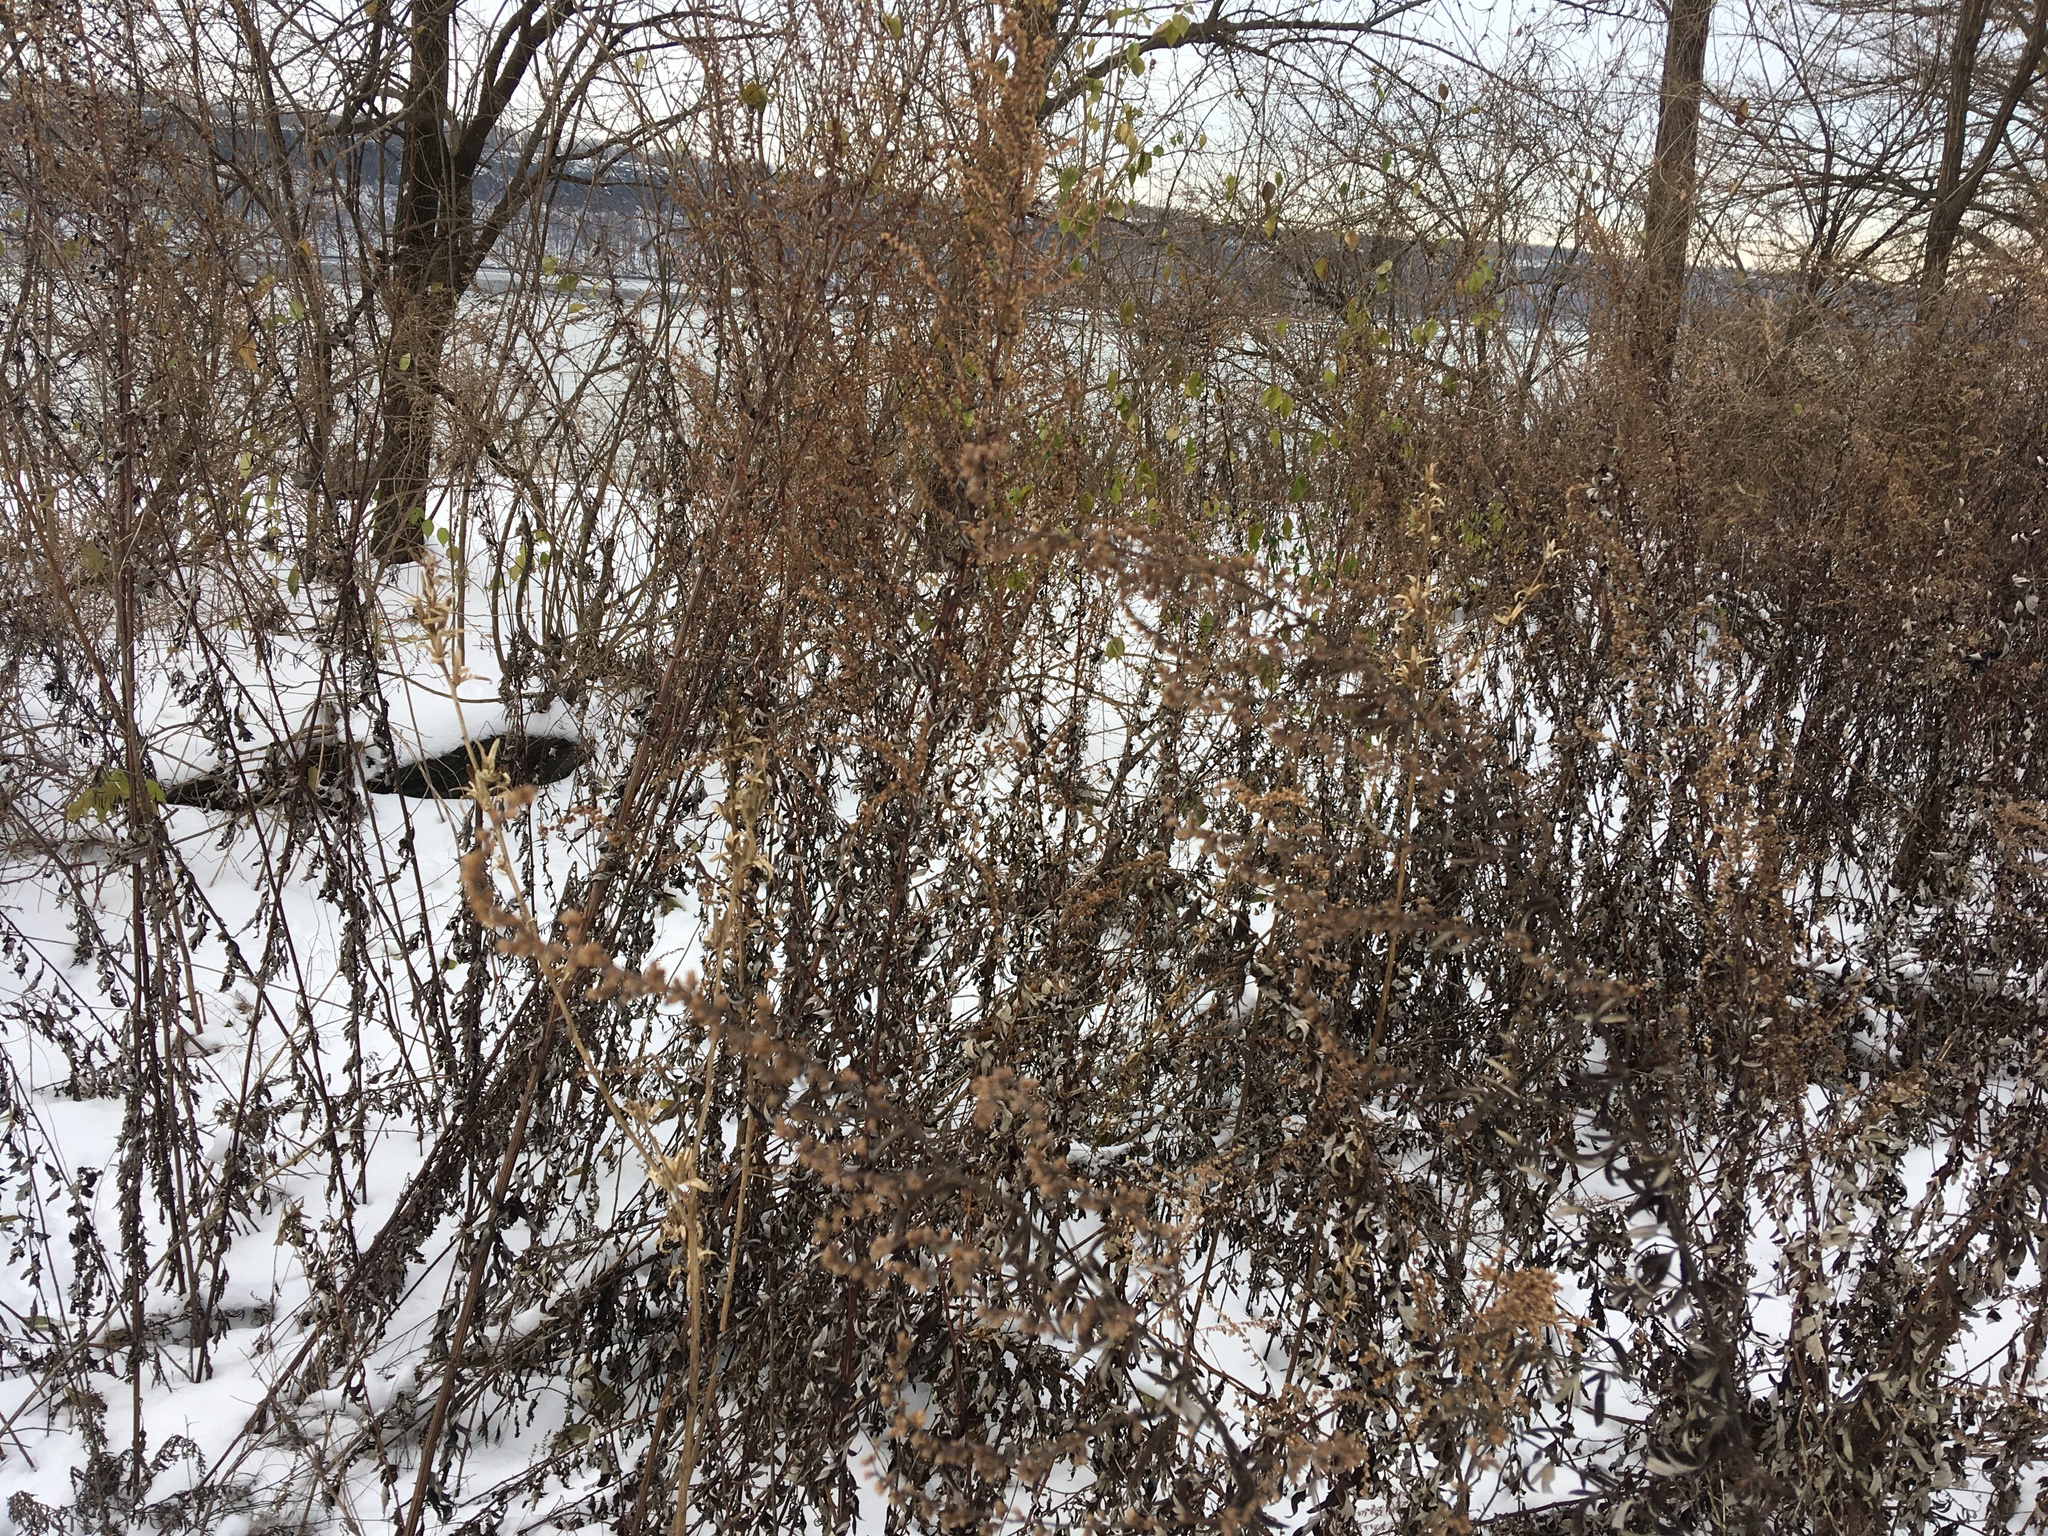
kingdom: Plantae
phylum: Tracheophyta
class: Magnoliopsida
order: Asterales
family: Asteraceae
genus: Artemisia
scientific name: Artemisia vulgaris
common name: Mugwort
